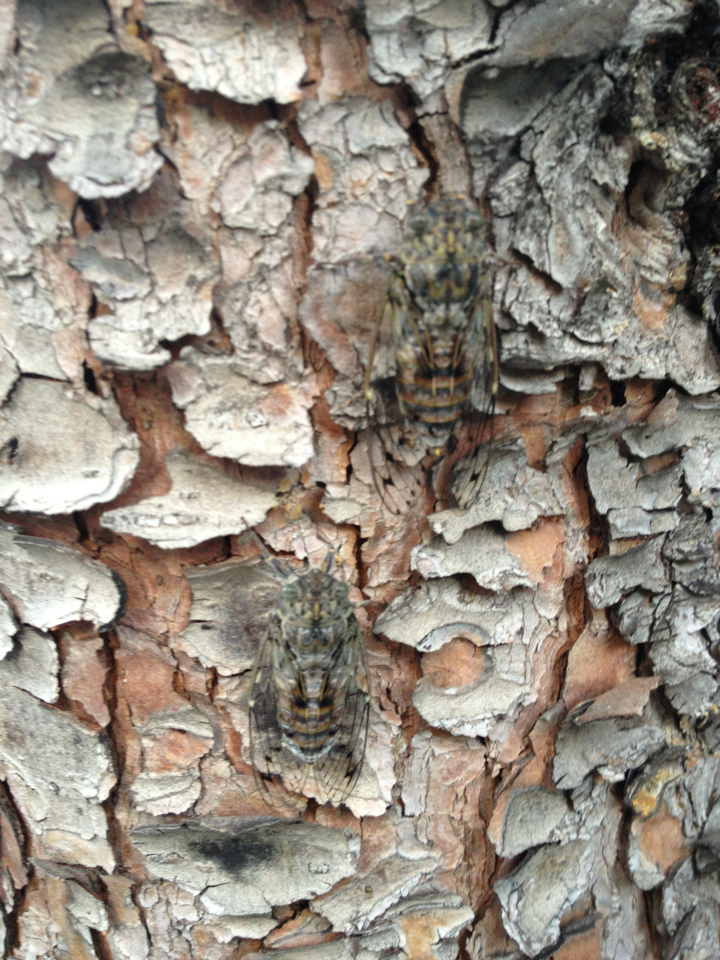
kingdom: Animalia
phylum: Arthropoda
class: Insecta
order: Hemiptera
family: Cicadidae
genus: Cicada
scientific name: Cicada orni
